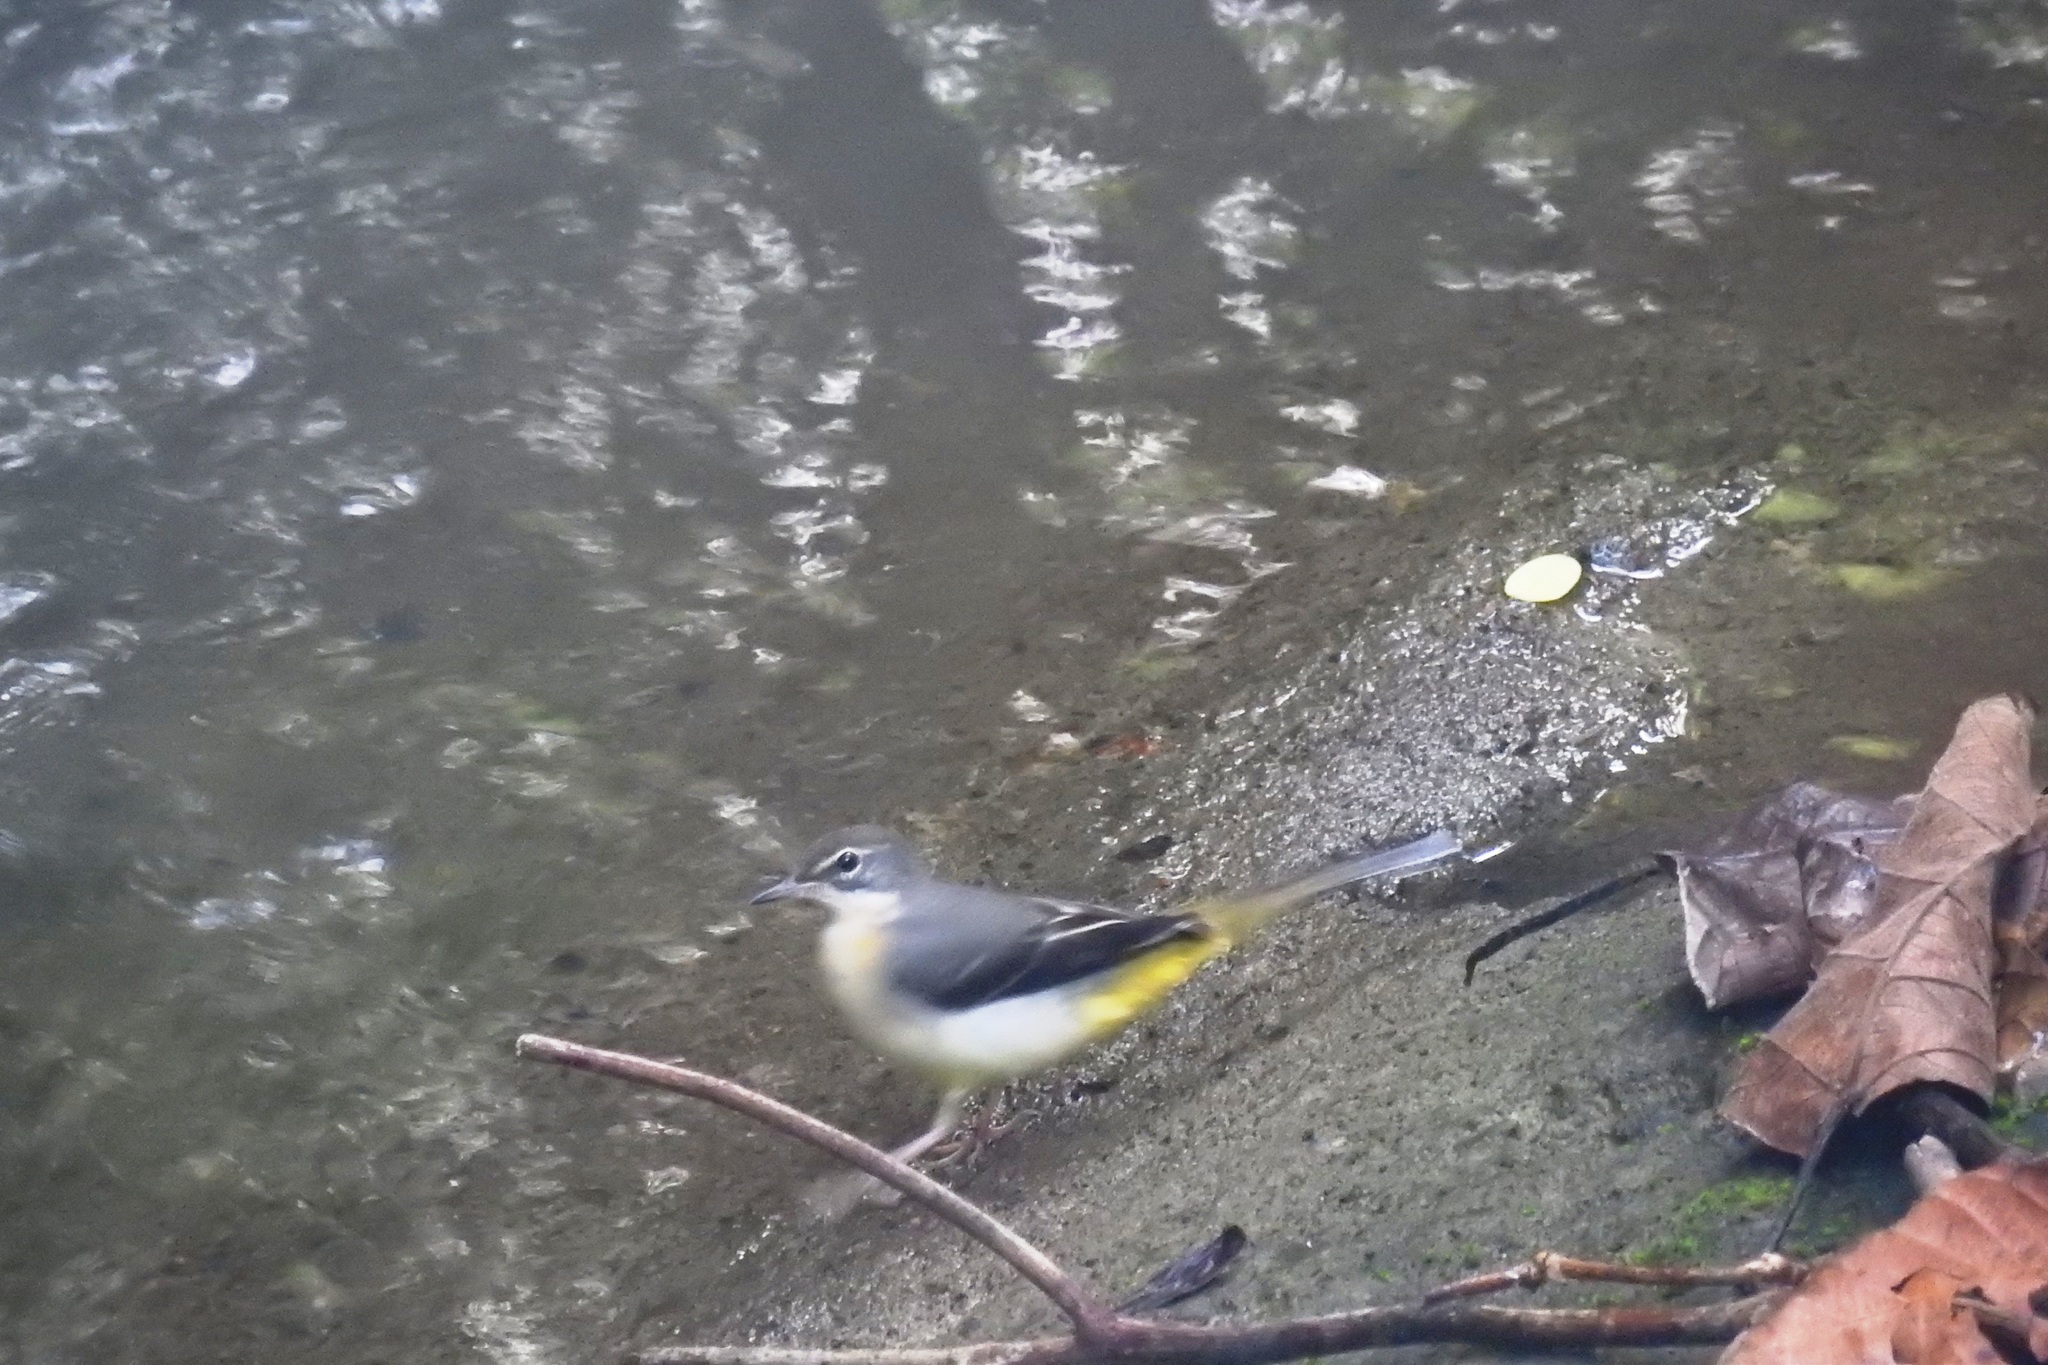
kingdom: Animalia
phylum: Chordata
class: Aves
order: Passeriformes
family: Motacillidae
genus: Motacilla
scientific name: Motacilla cinerea
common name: Grey wagtail
